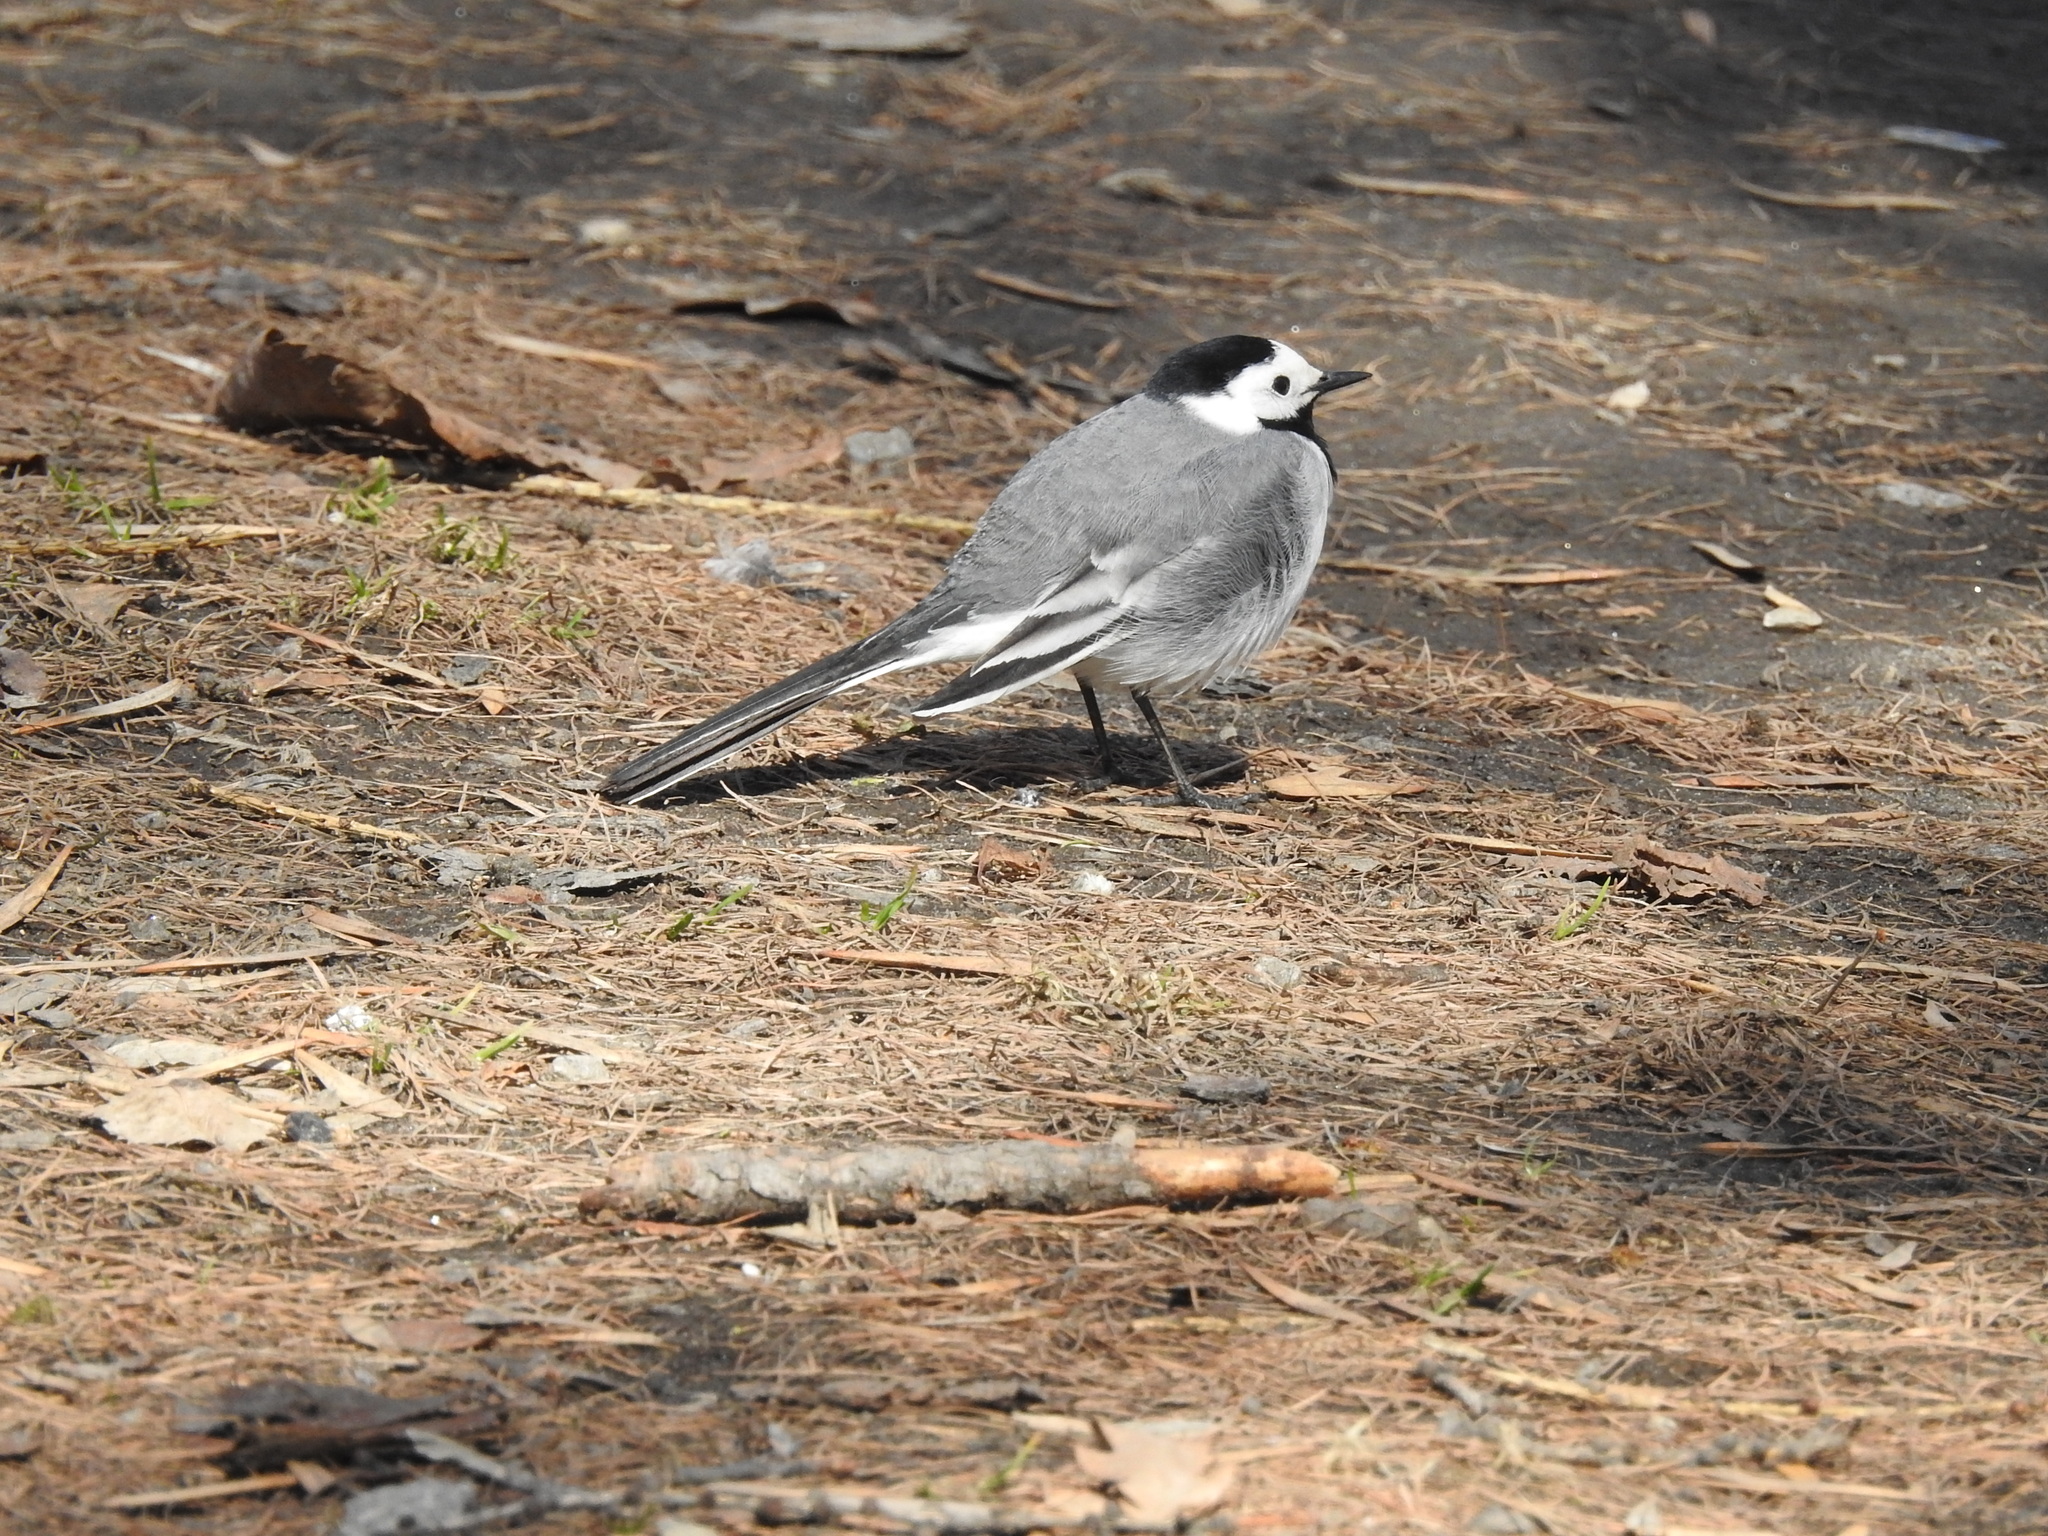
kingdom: Animalia
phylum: Chordata
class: Aves
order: Passeriformes
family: Motacillidae
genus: Motacilla
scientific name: Motacilla alba
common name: White wagtail
